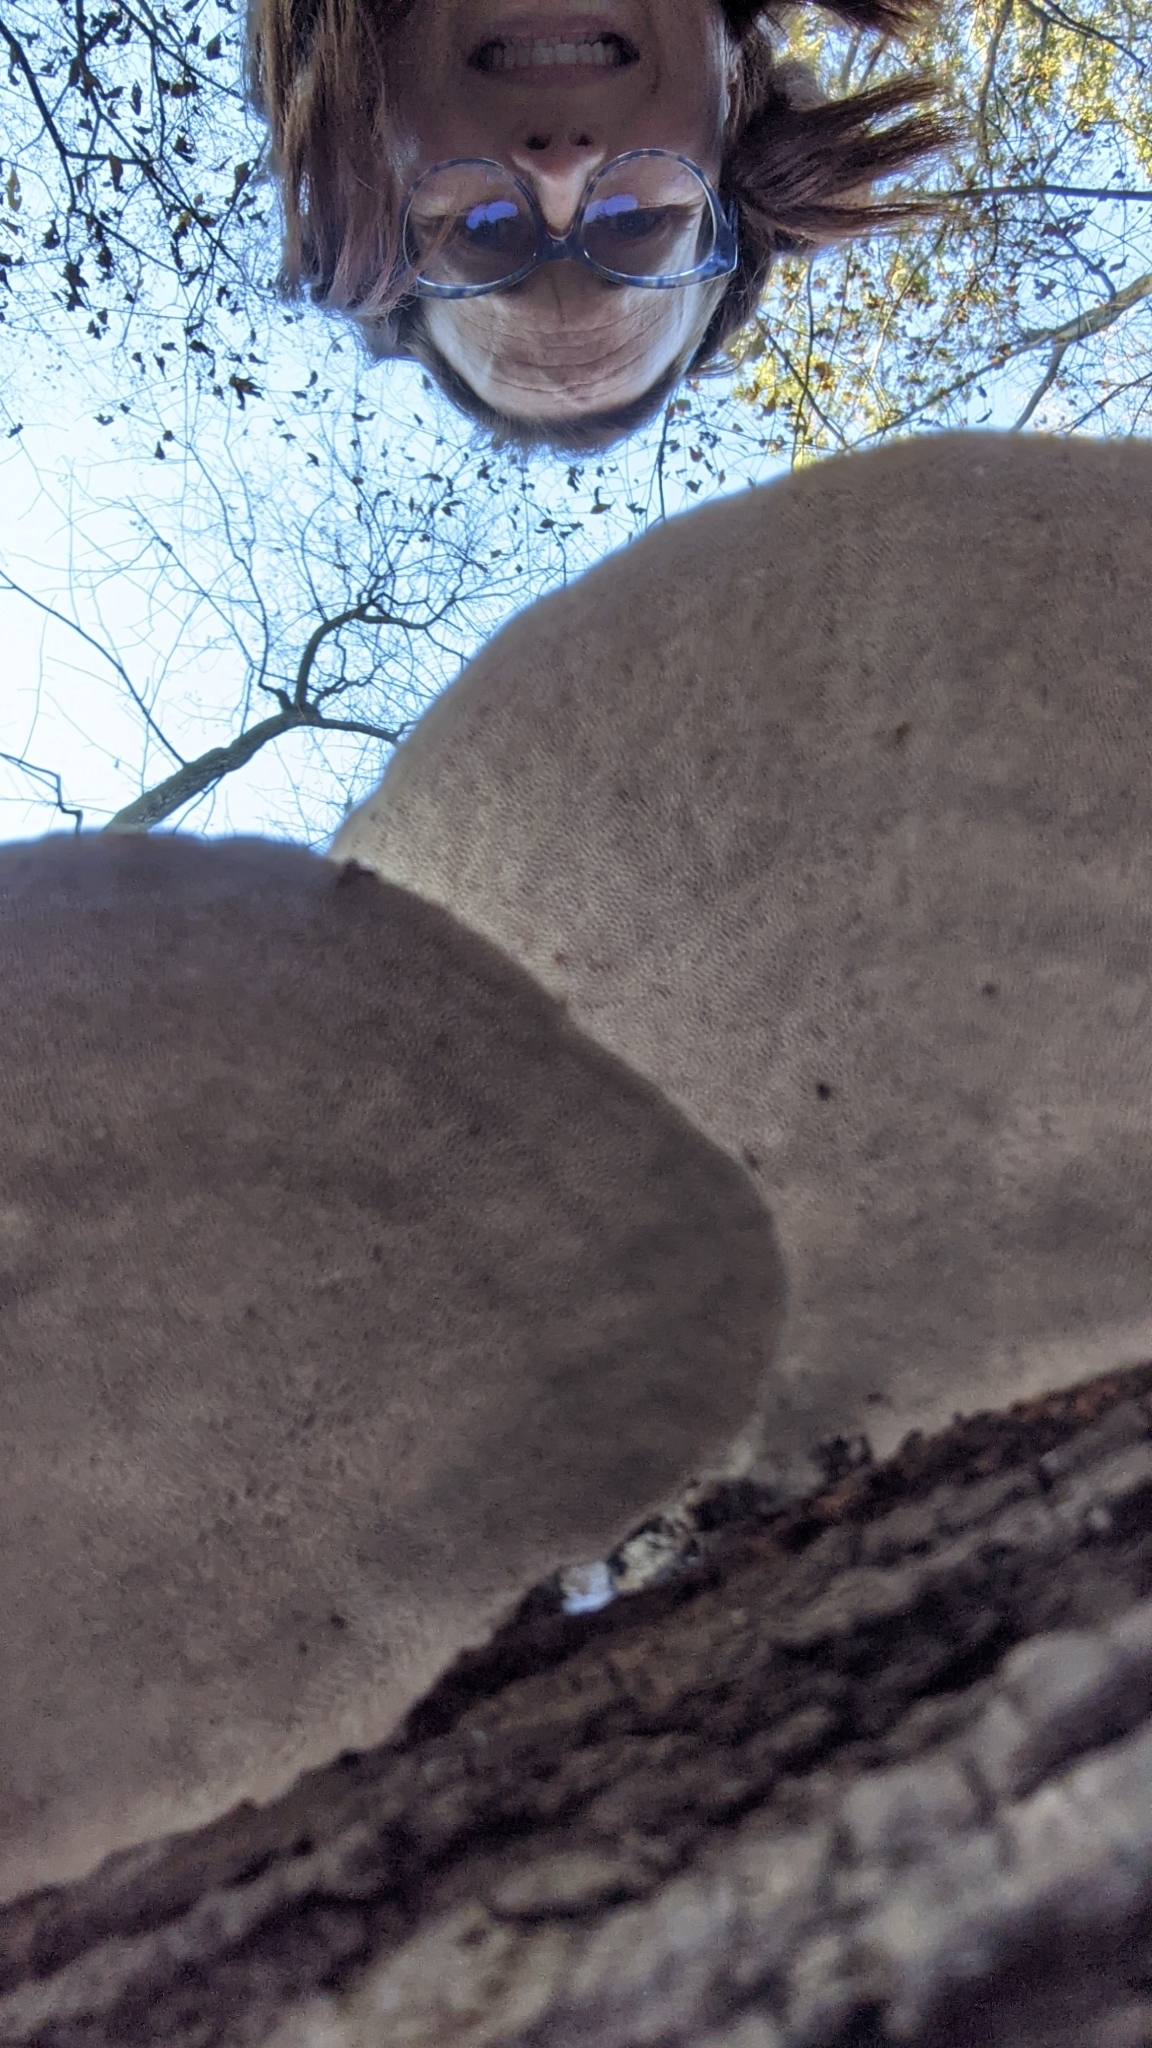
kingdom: Fungi
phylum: Basidiomycota
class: Agaricomycetes
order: Polyporales
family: Polyporaceae
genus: Trametes
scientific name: Trametes gibbosa
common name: Lumpy bracket
